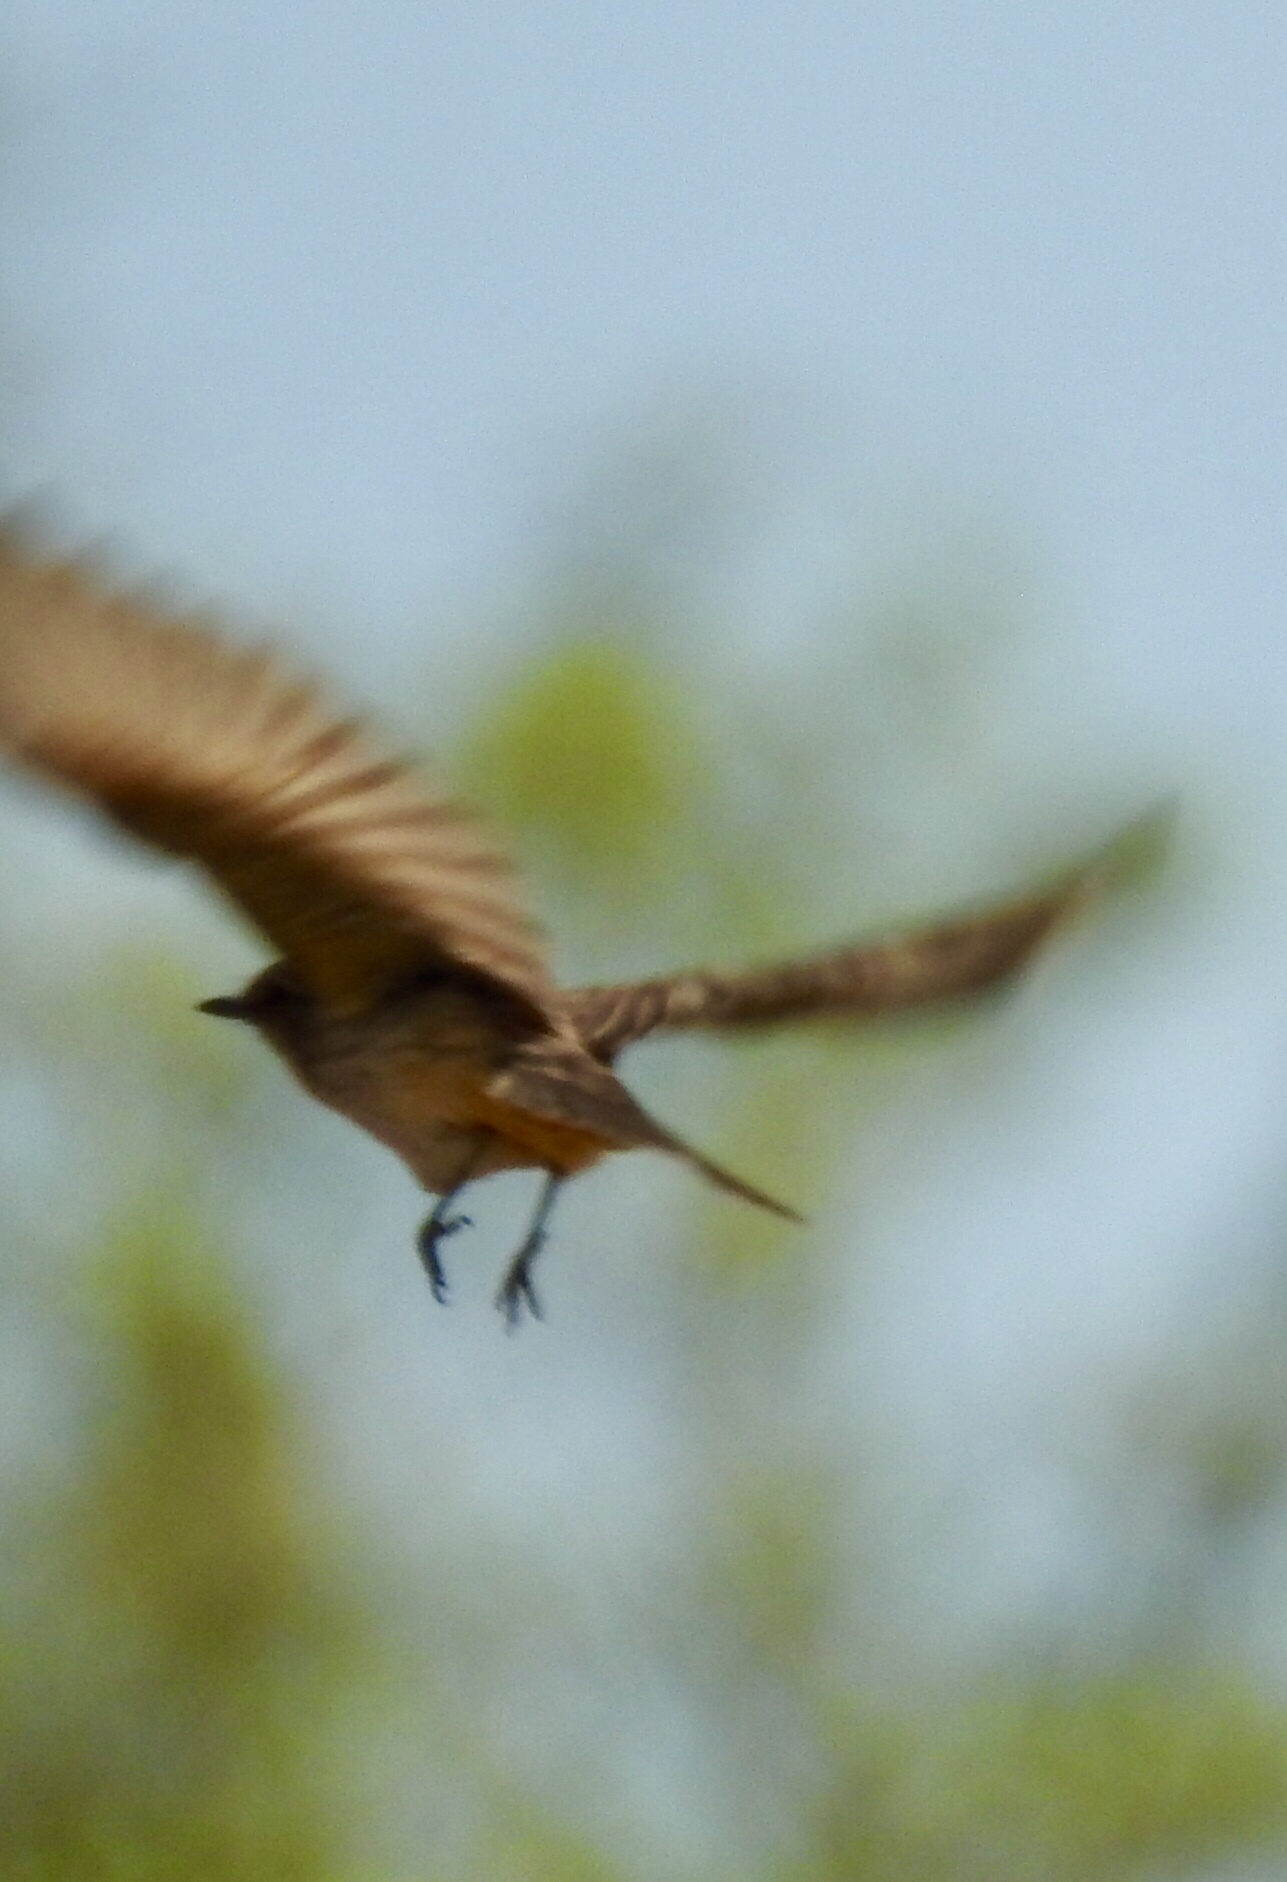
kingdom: Animalia
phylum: Chordata
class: Aves
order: Passeriformes
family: Tyrannidae
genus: Pyrocephalus
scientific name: Pyrocephalus rubinus
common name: Vermilion flycatcher
